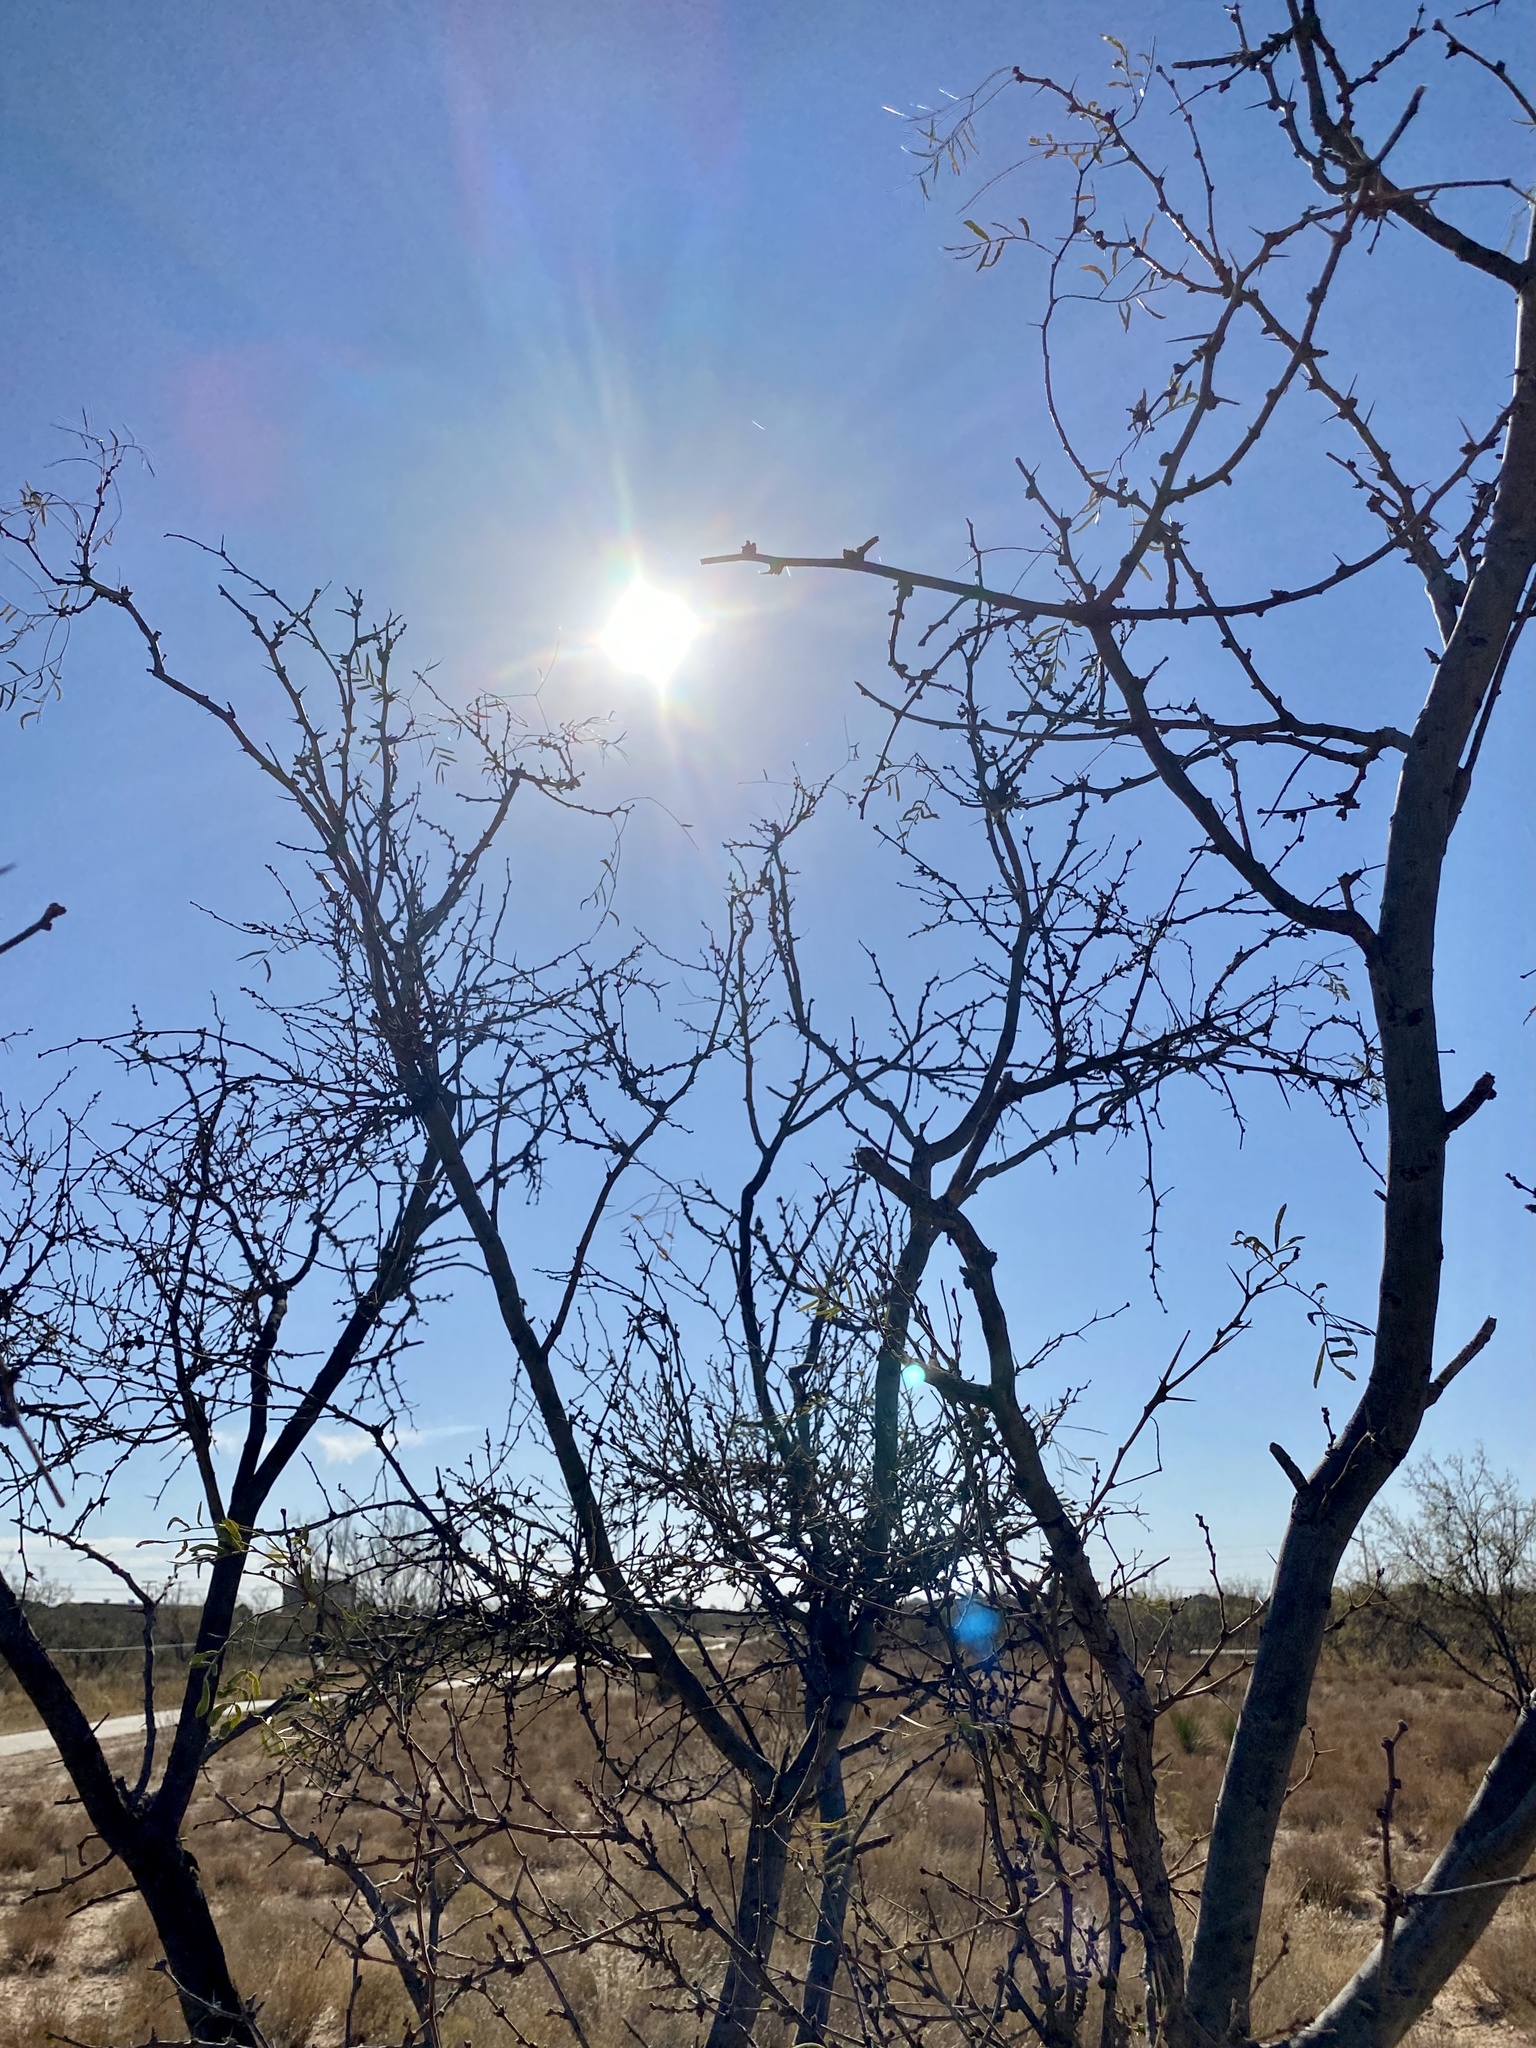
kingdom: Plantae
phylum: Tracheophyta
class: Magnoliopsida
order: Fabales
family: Fabaceae
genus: Prosopis
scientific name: Prosopis glandulosa
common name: Honey mesquite
